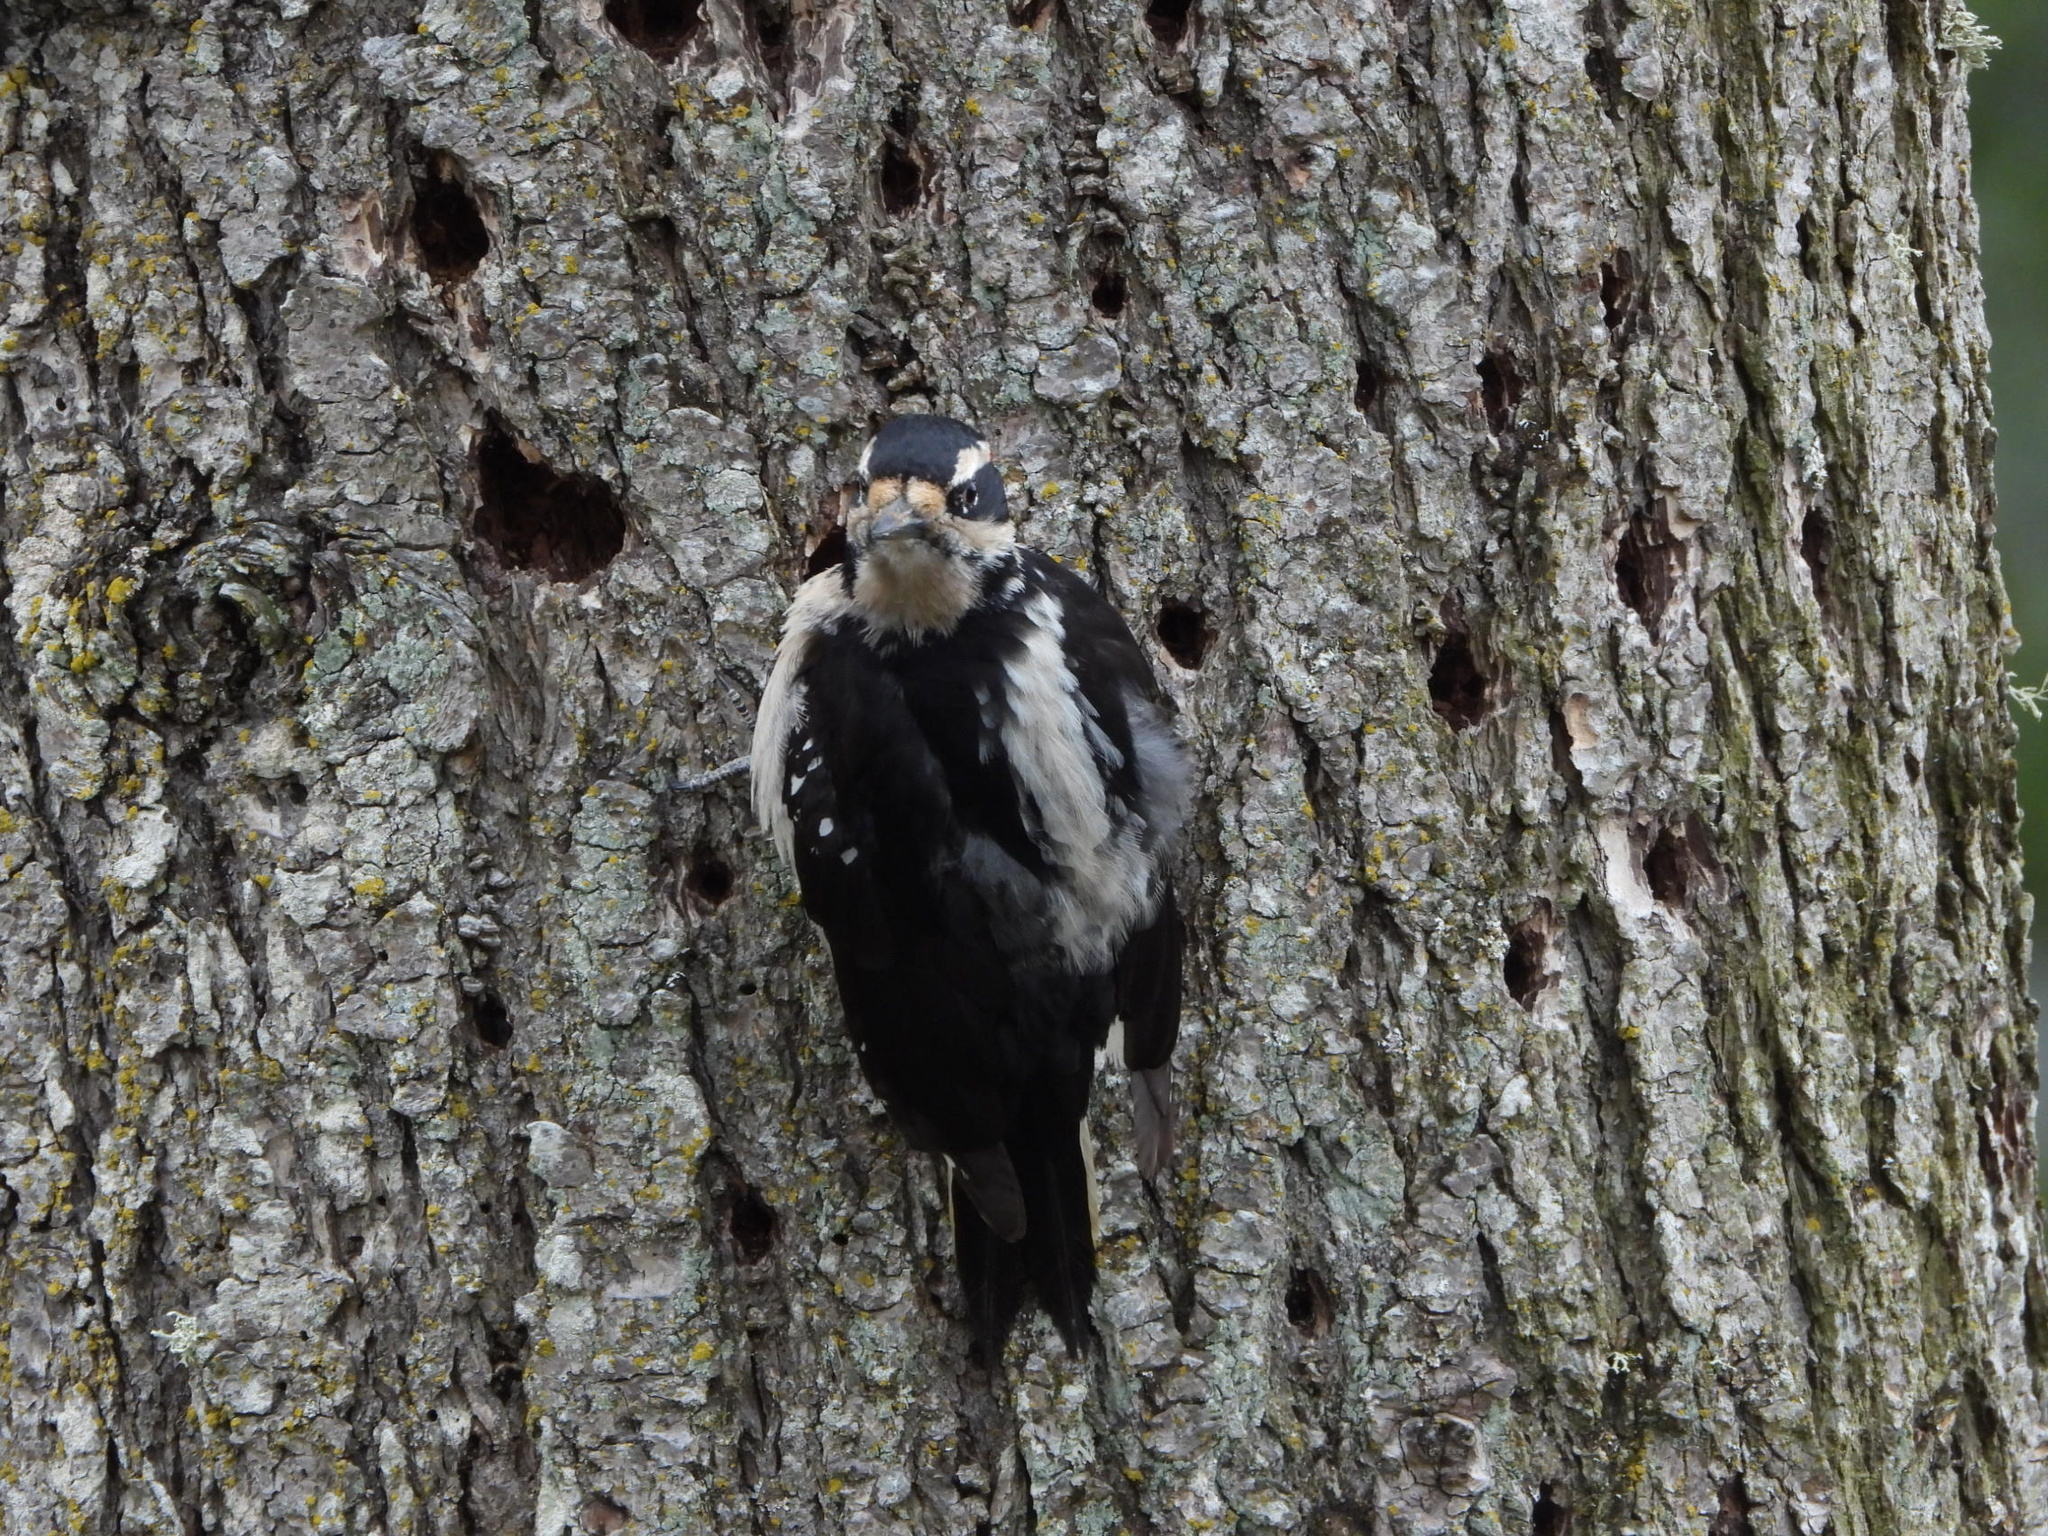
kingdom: Animalia
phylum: Chordata
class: Aves
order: Piciformes
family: Picidae
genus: Leuconotopicus
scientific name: Leuconotopicus villosus
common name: Hairy woodpecker
